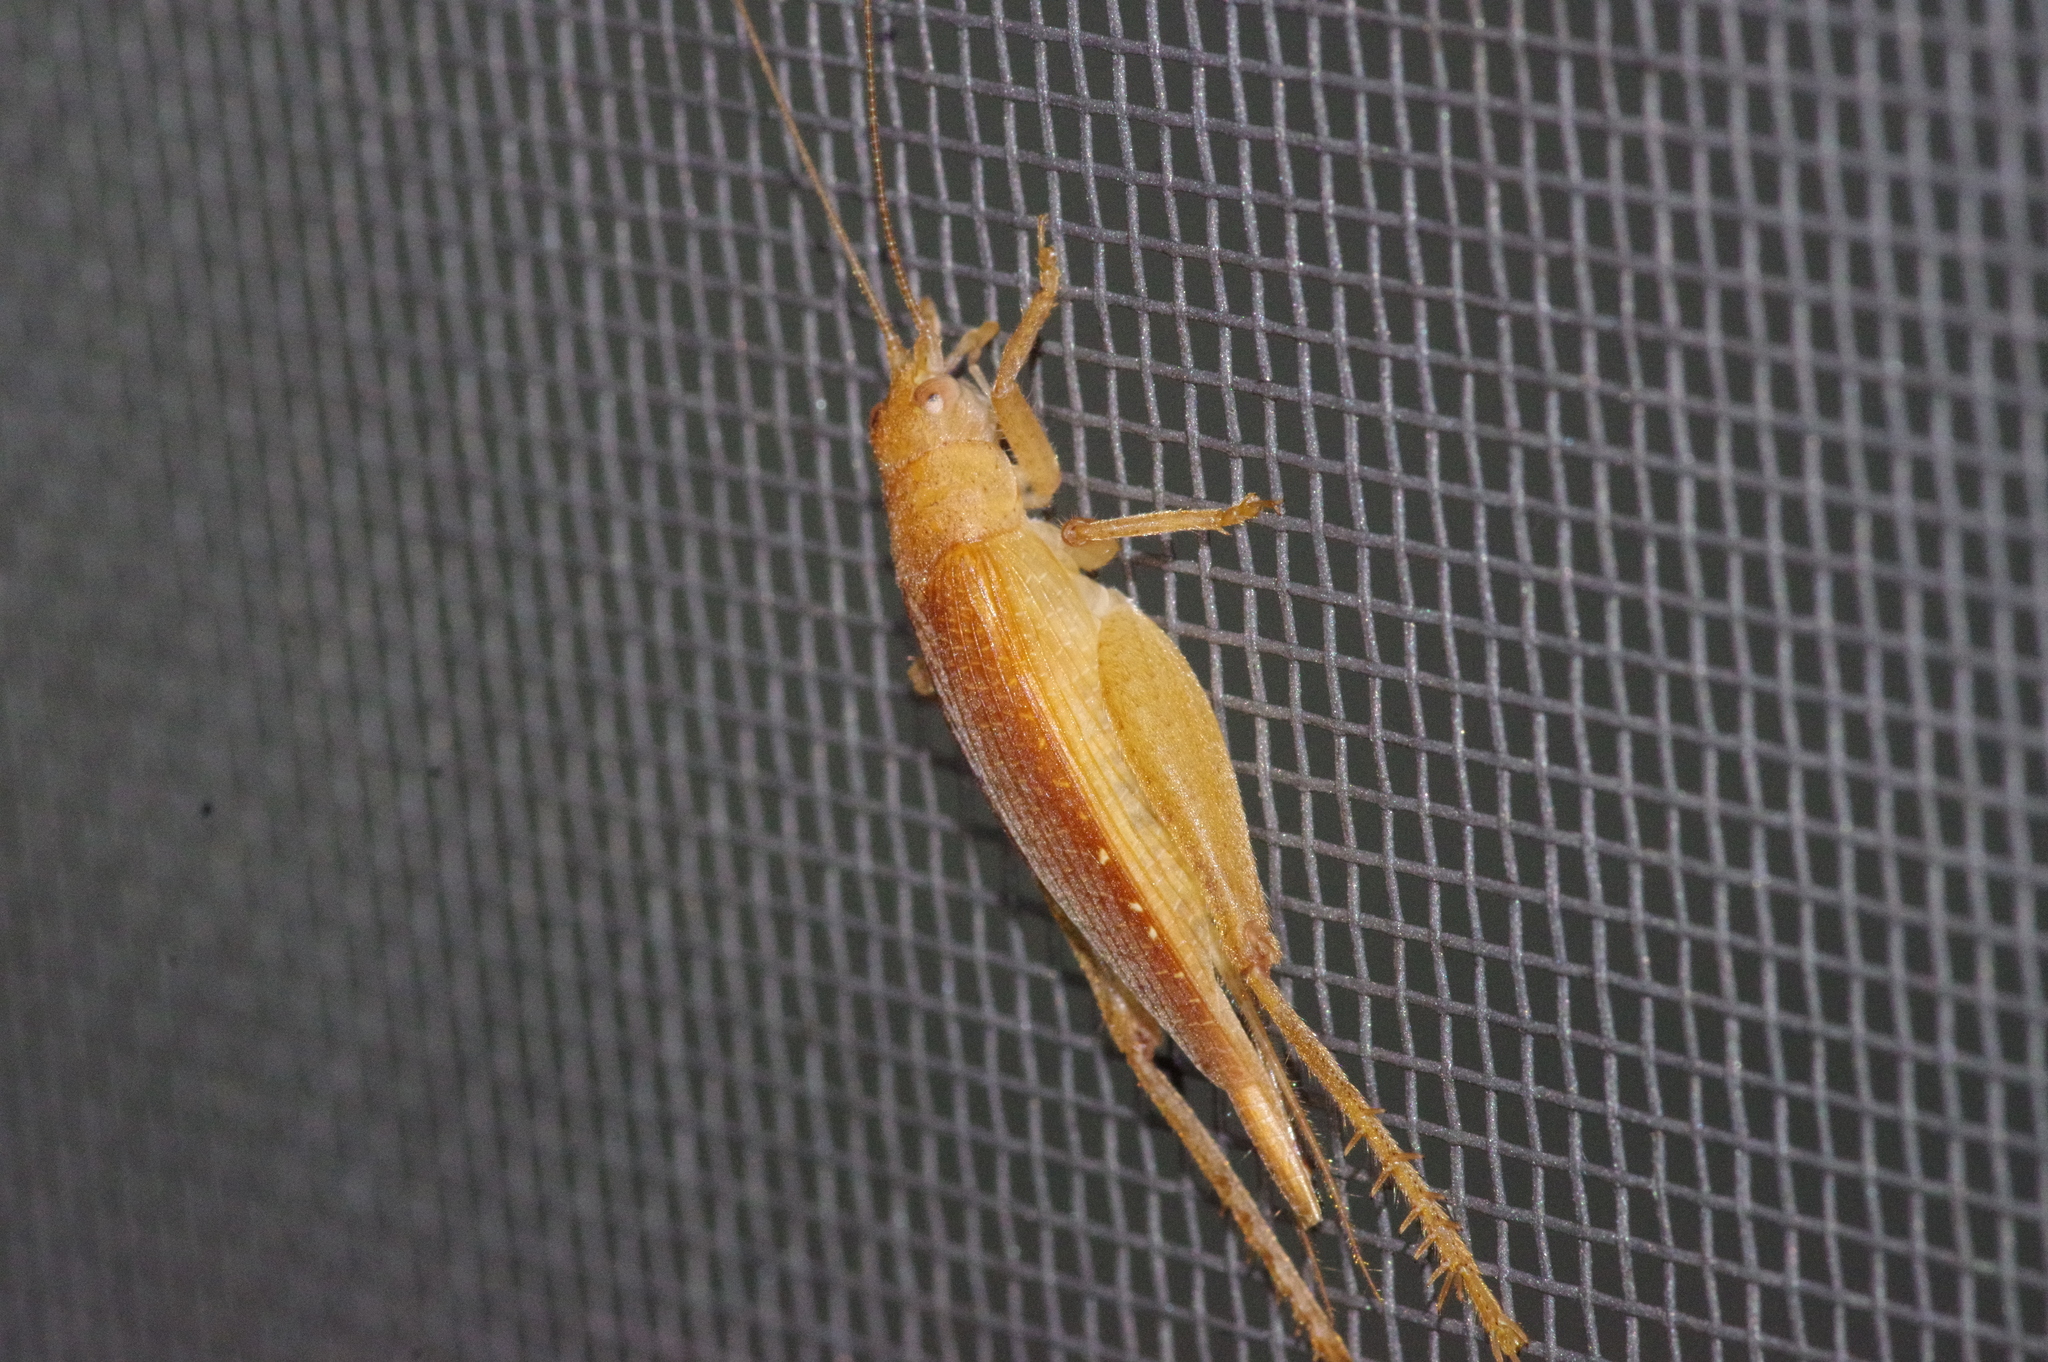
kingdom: Animalia
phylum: Arthropoda
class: Insecta
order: Orthoptera
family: Gryllidae
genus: Aphonoides
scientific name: Aphonoides rufescens
